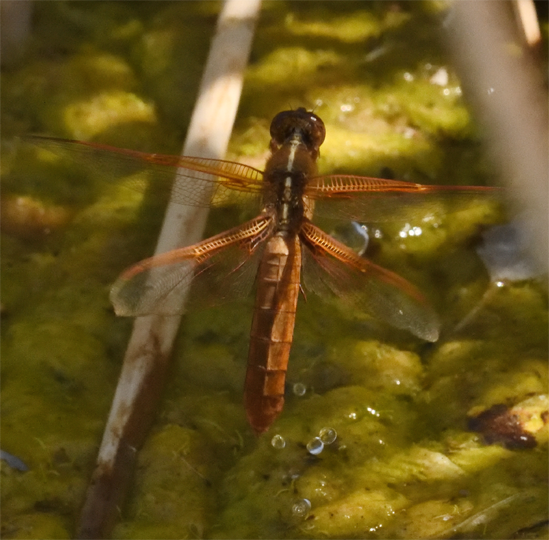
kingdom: Animalia
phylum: Arthropoda
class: Insecta
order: Odonata
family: Libellulidae
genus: Libellula
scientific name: Libellula saturata
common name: Flame skimmer
